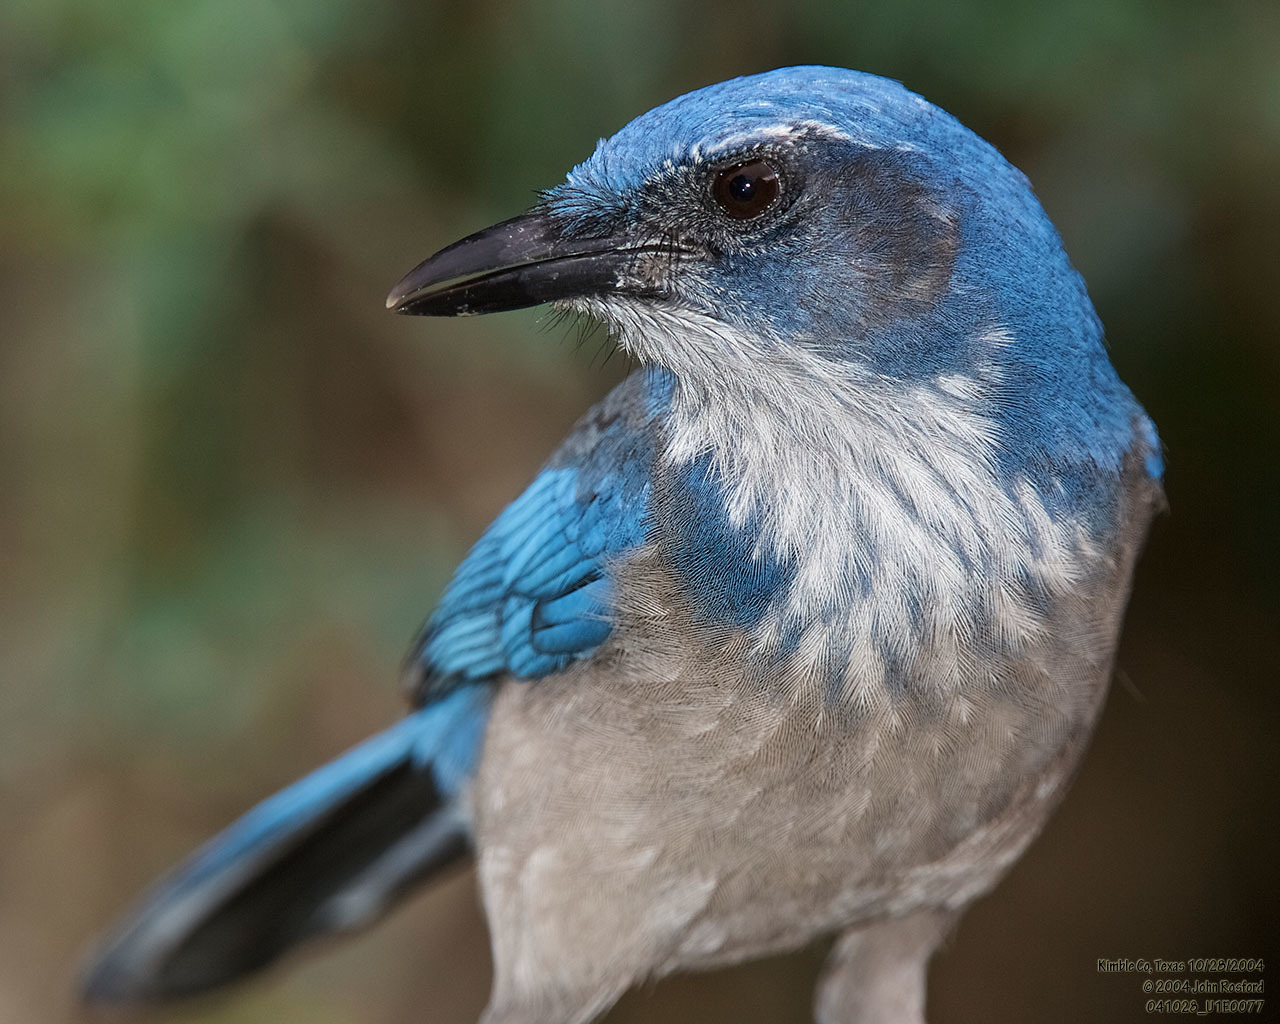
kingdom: Animalia
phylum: Chordata
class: Aves
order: Passeriformes
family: Corvidae
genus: Aphelocoma
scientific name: Aphelocoma woodhouseii
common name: Woodhouse's scrub-jay
